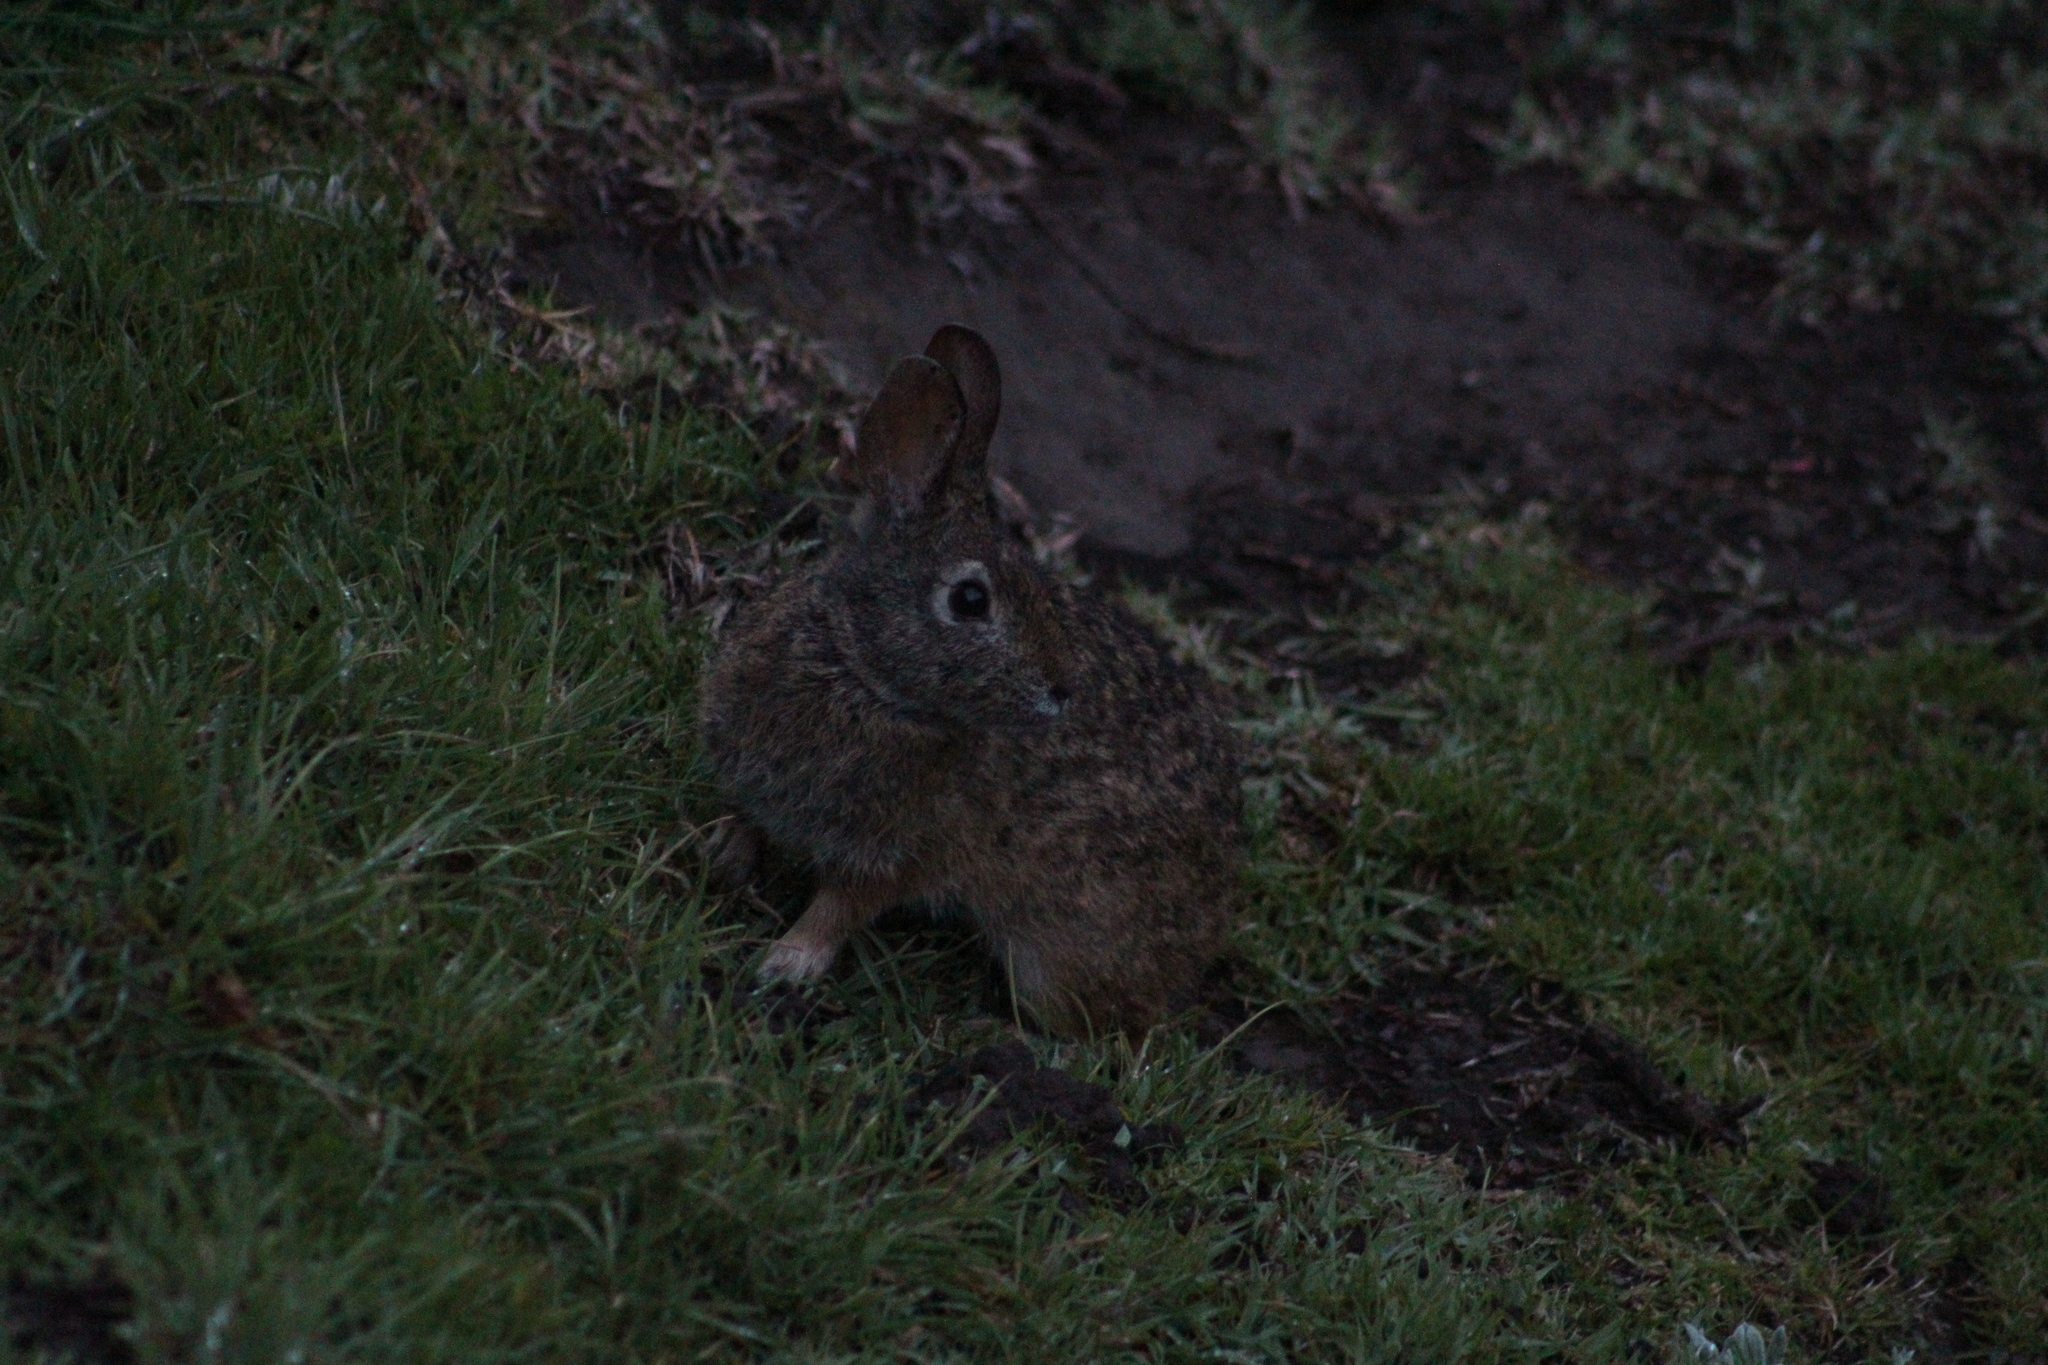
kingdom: Animalia
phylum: Chordata
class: Mammalia
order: Lagomorpha
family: Leporidae
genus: Sylvilagus
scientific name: Sylvilagus andinus
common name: Andean cottontail
